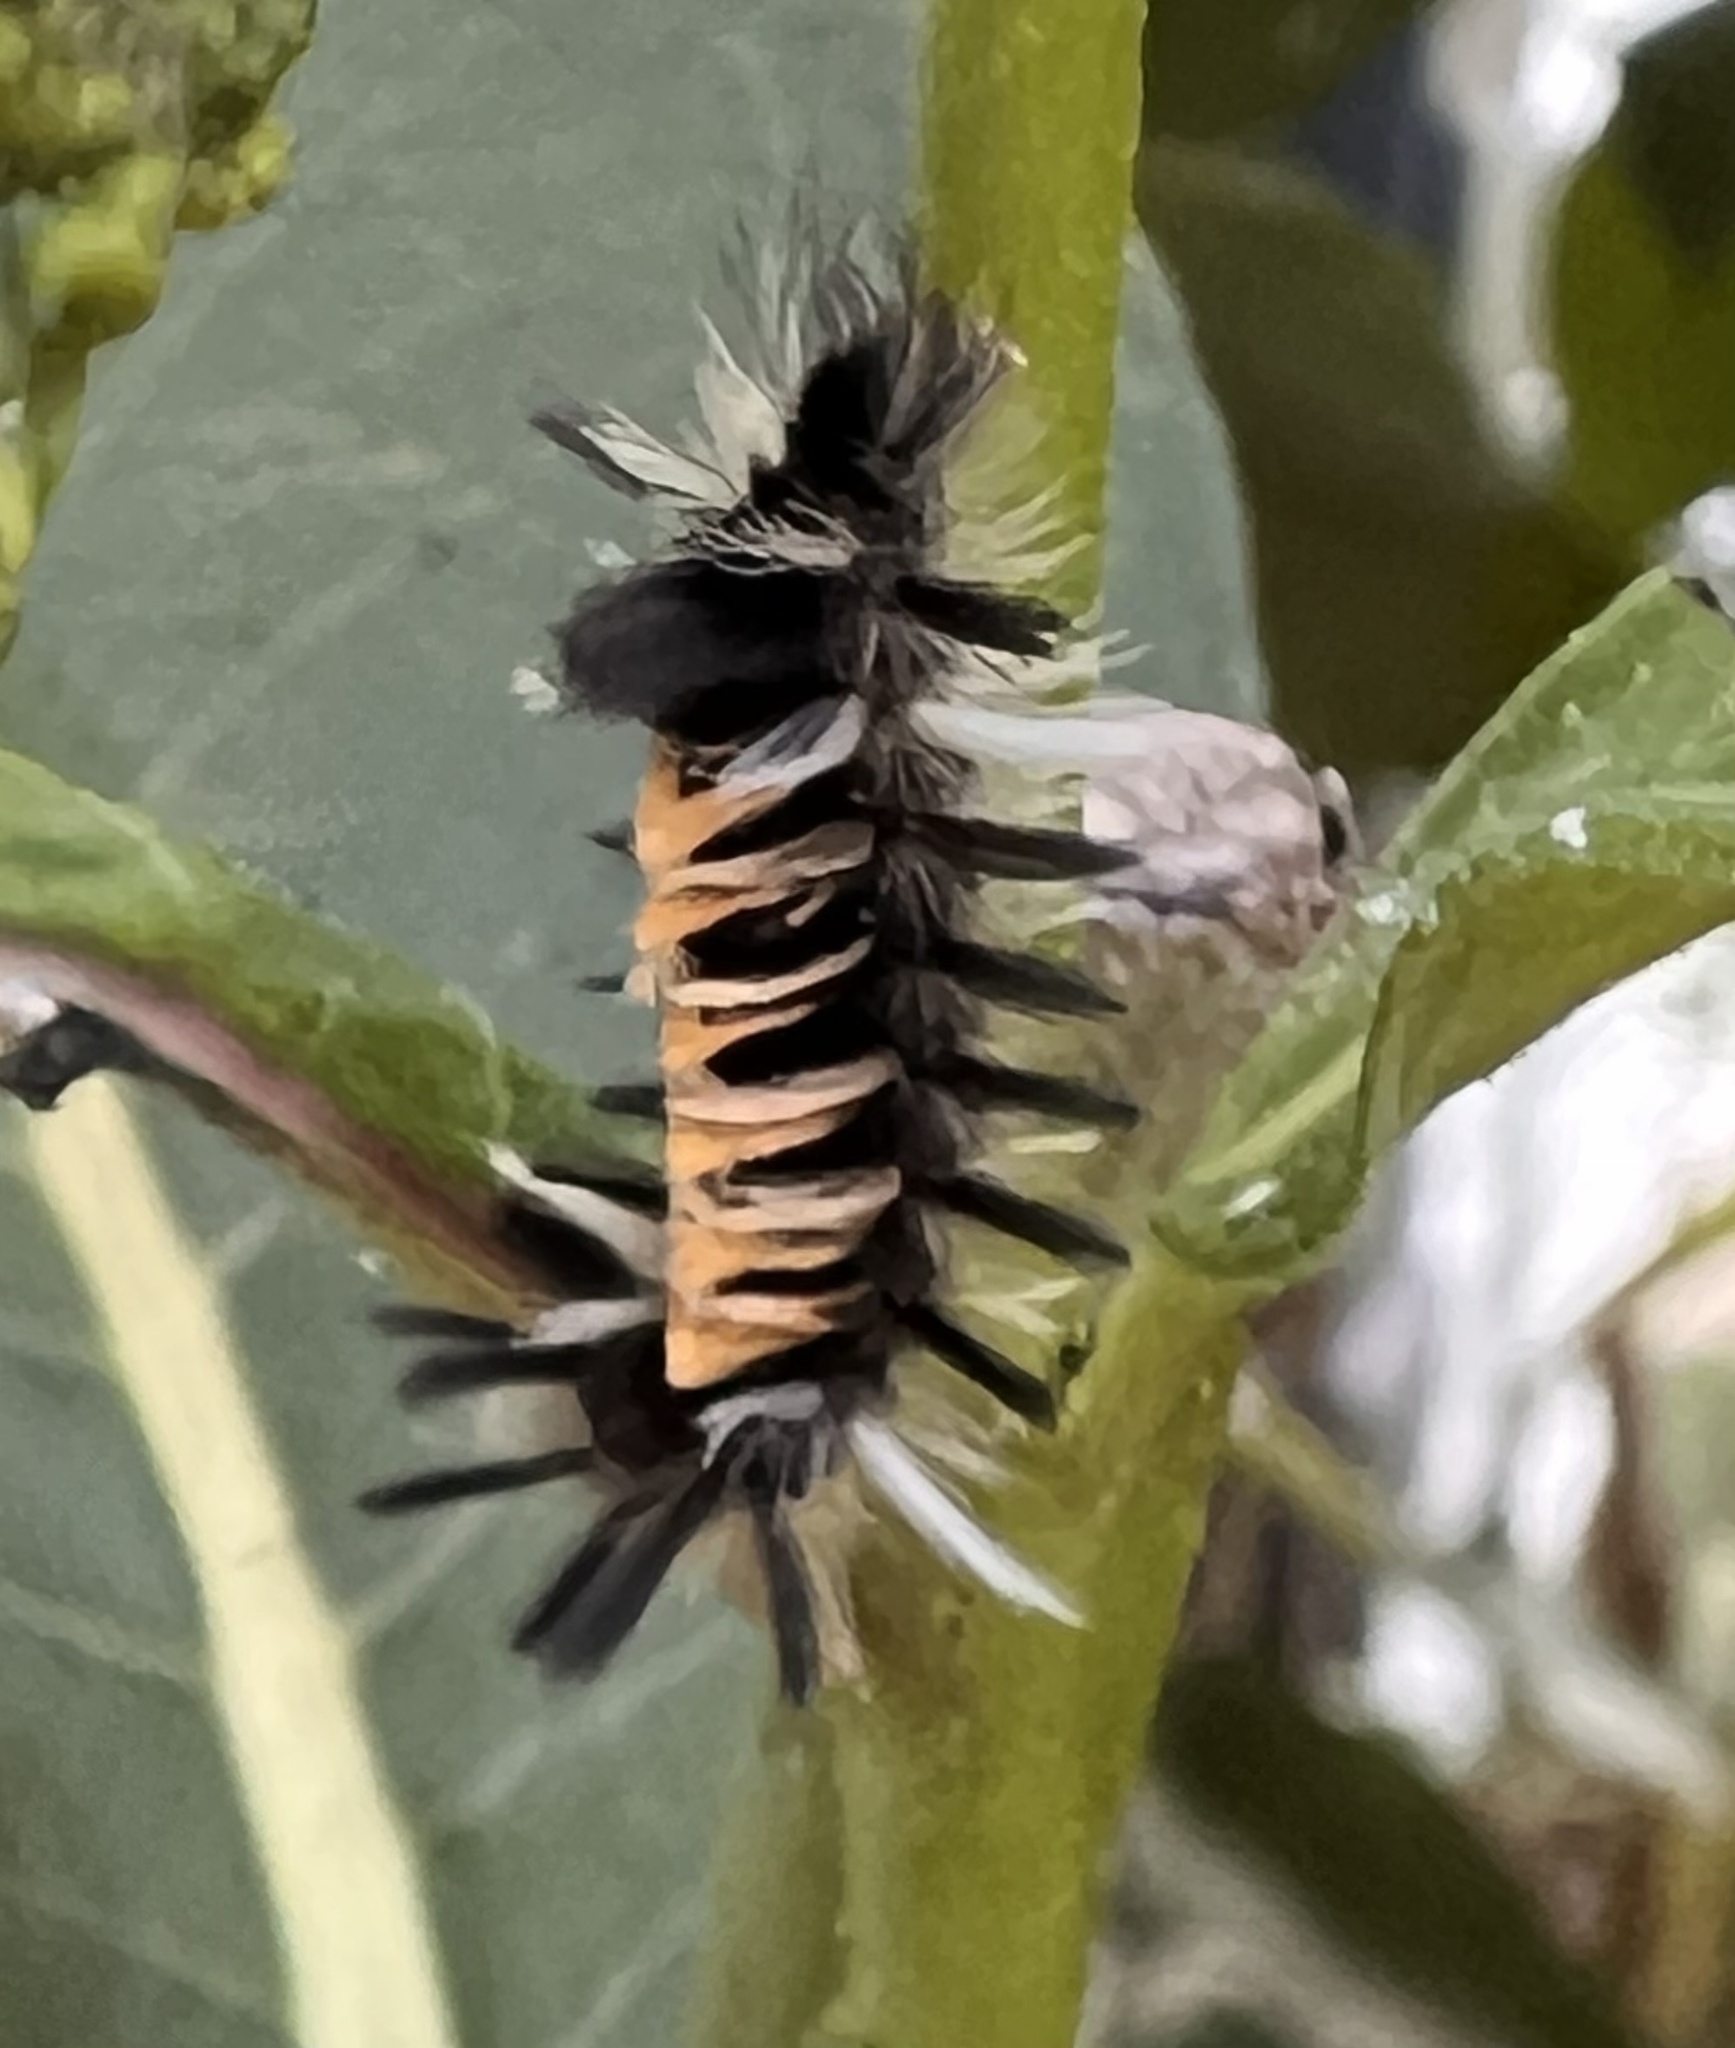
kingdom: Animalia
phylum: Arthropoda
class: Insecta
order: Lepidoptera
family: Erebidae
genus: Euchaetes
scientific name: Euchaetes egle
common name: Milkweed tussock moth
